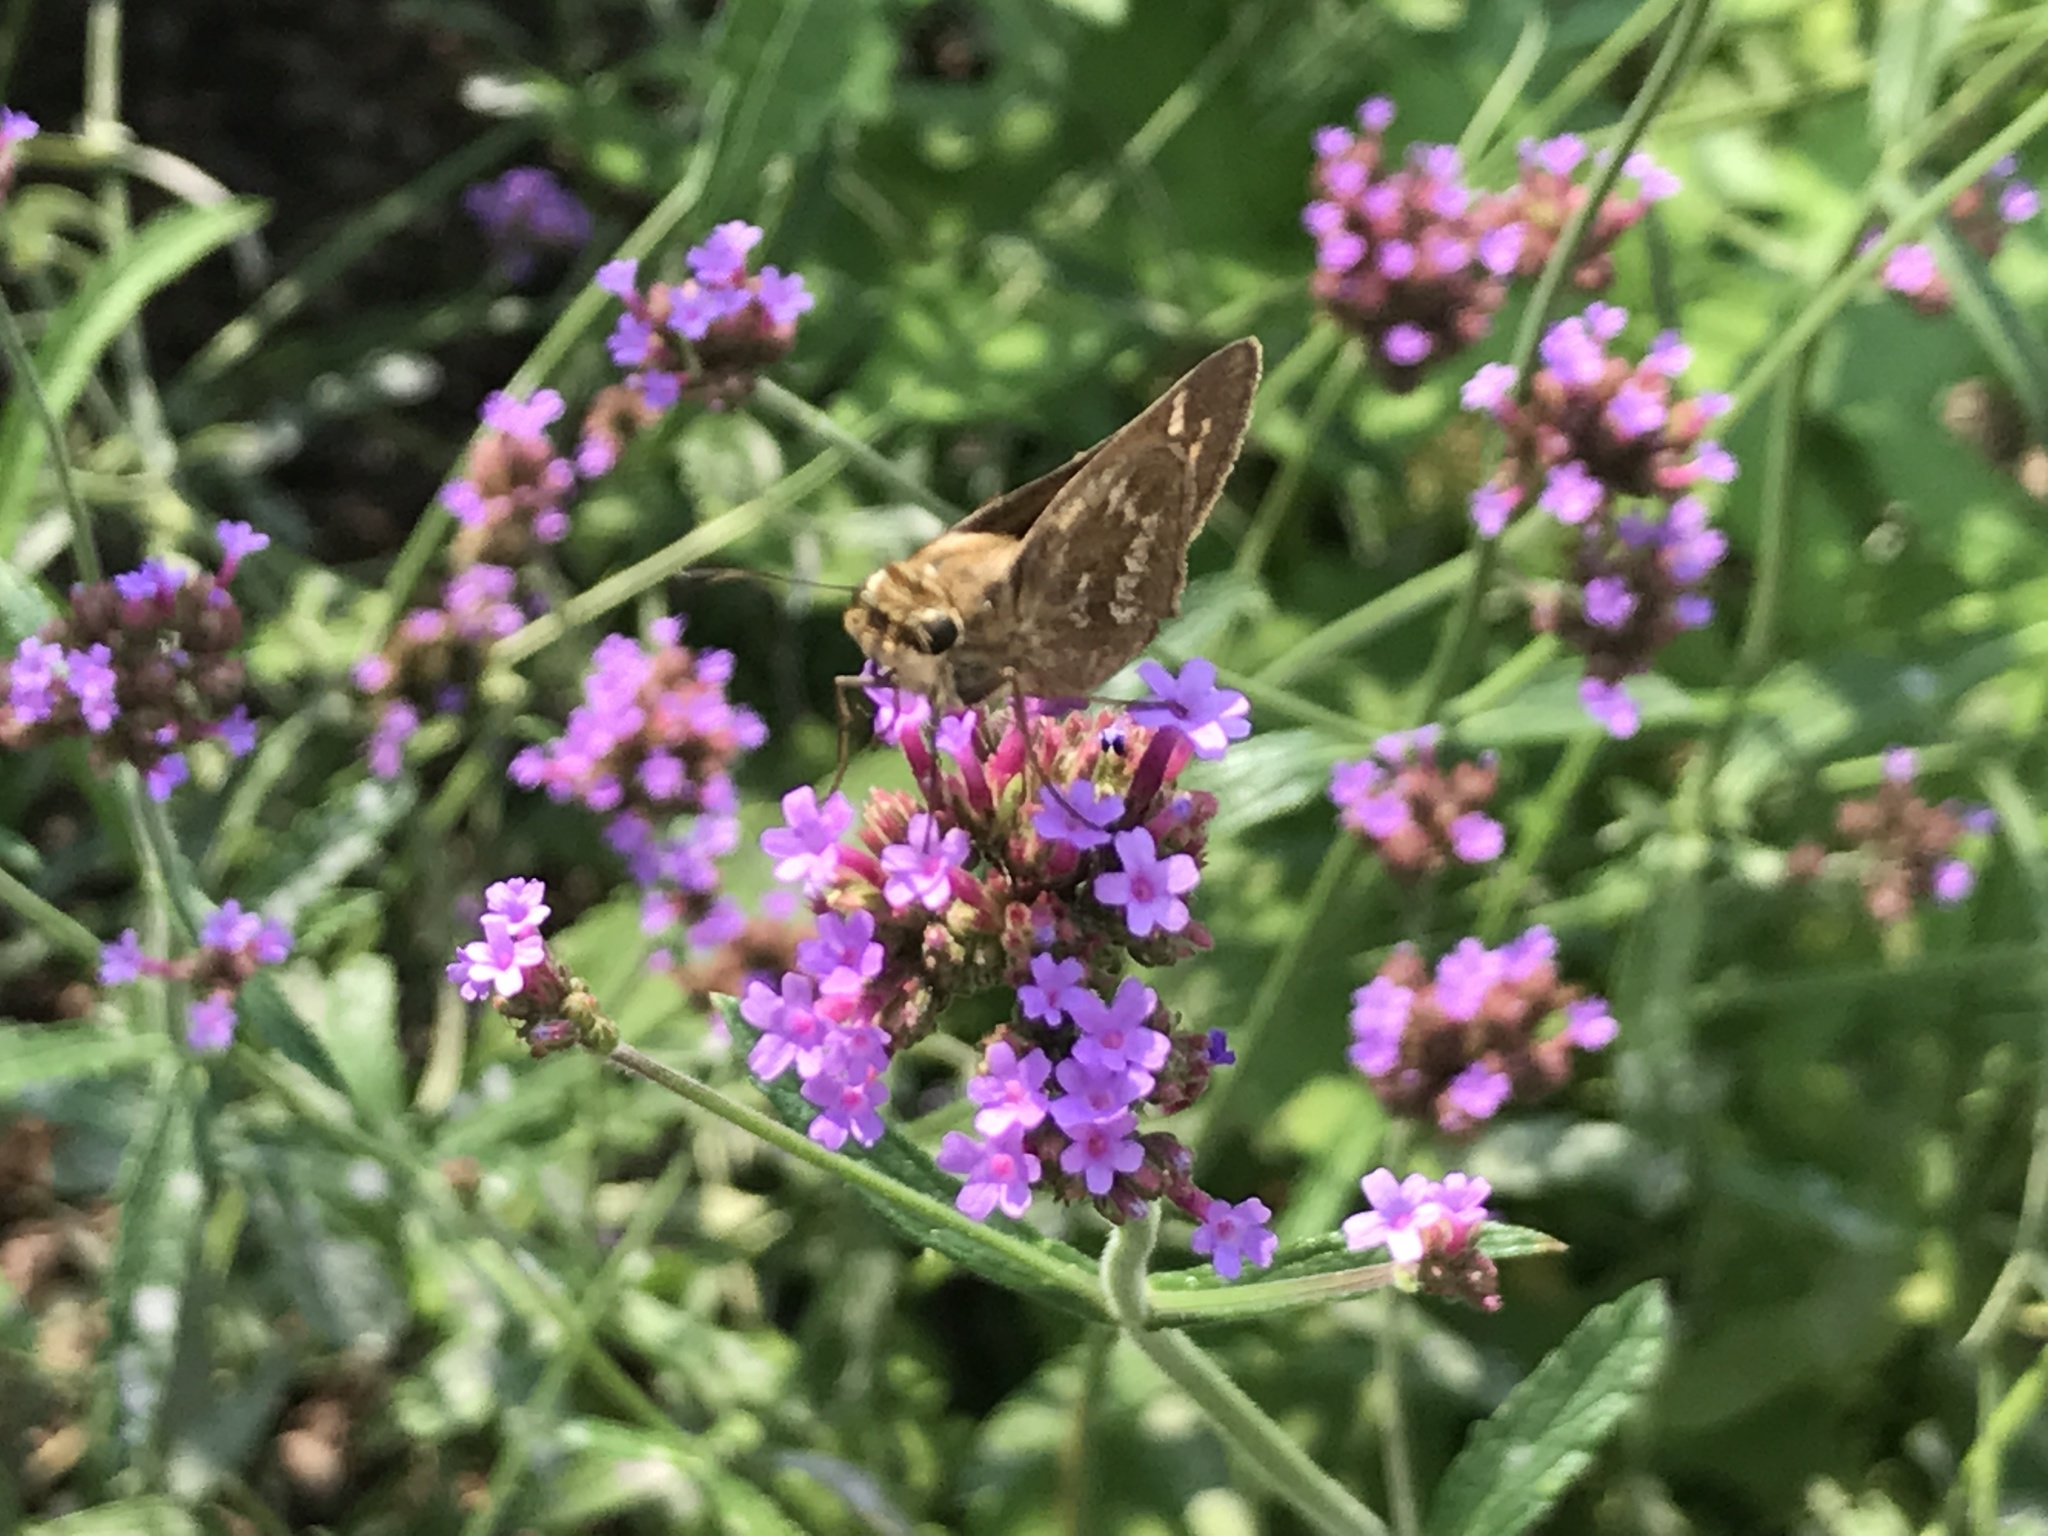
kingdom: Animalia
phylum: Arthropoda
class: Insecta
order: Lepidoptera
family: Hesperiidae
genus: Atalopedes
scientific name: Atalopedes
